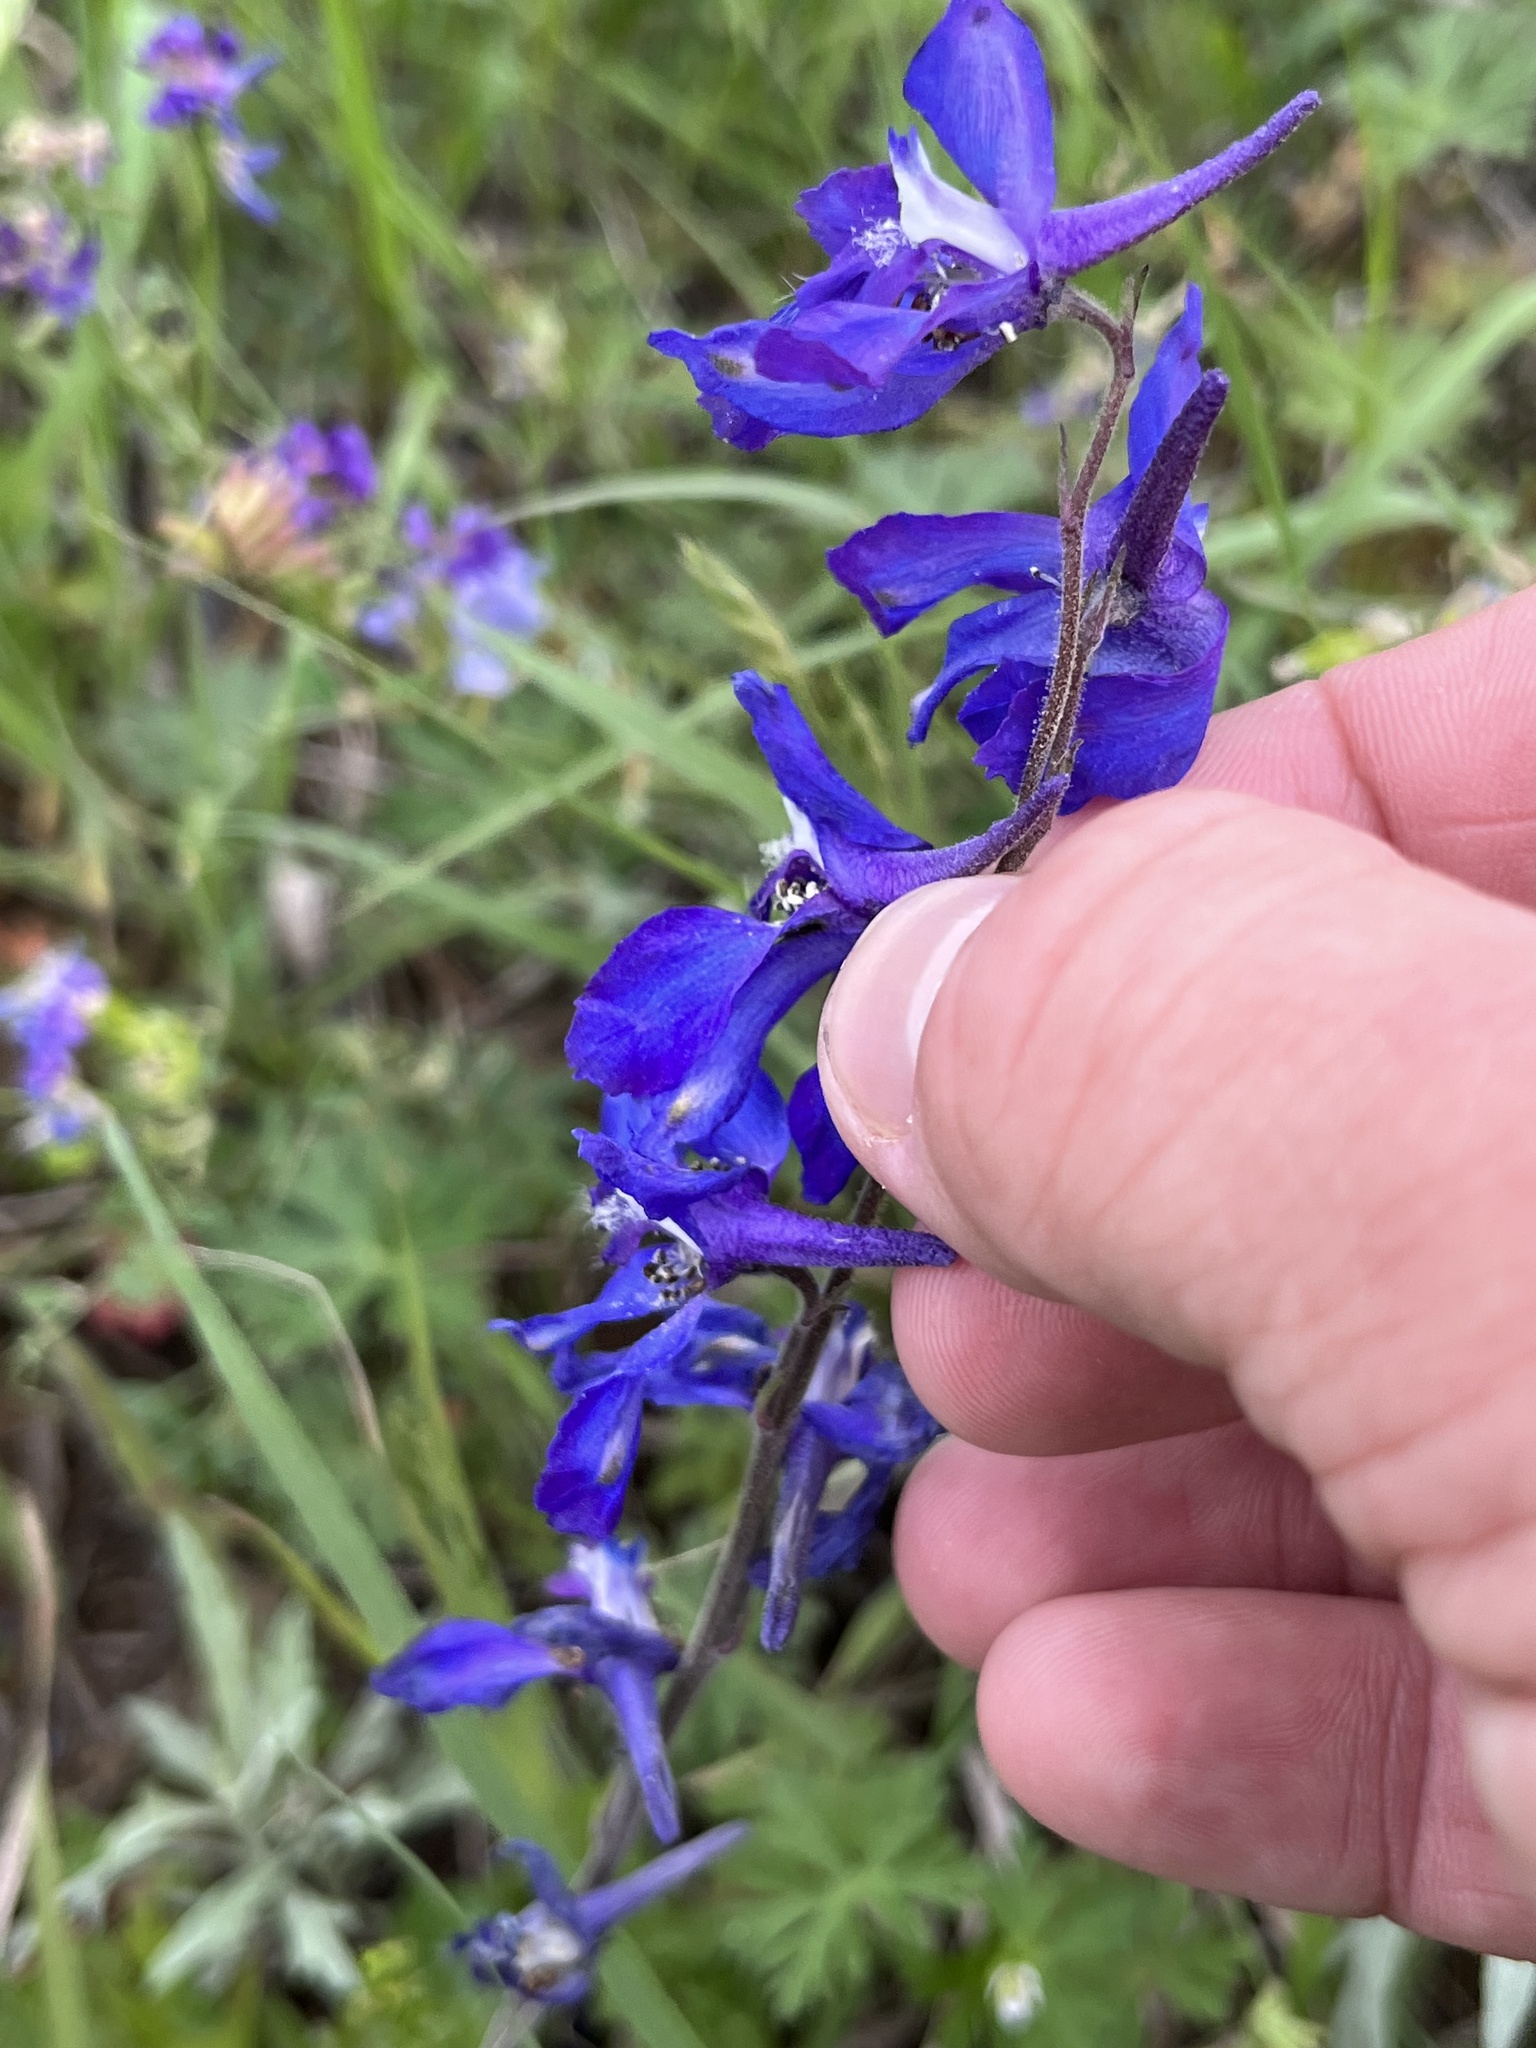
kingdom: Plantae
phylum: Tracheophyta
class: Magnoliopsida
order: Ranunculales
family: Ranunculaceae
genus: Delphinium
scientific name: Delphinium carolinianum
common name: Carolina larkspur
